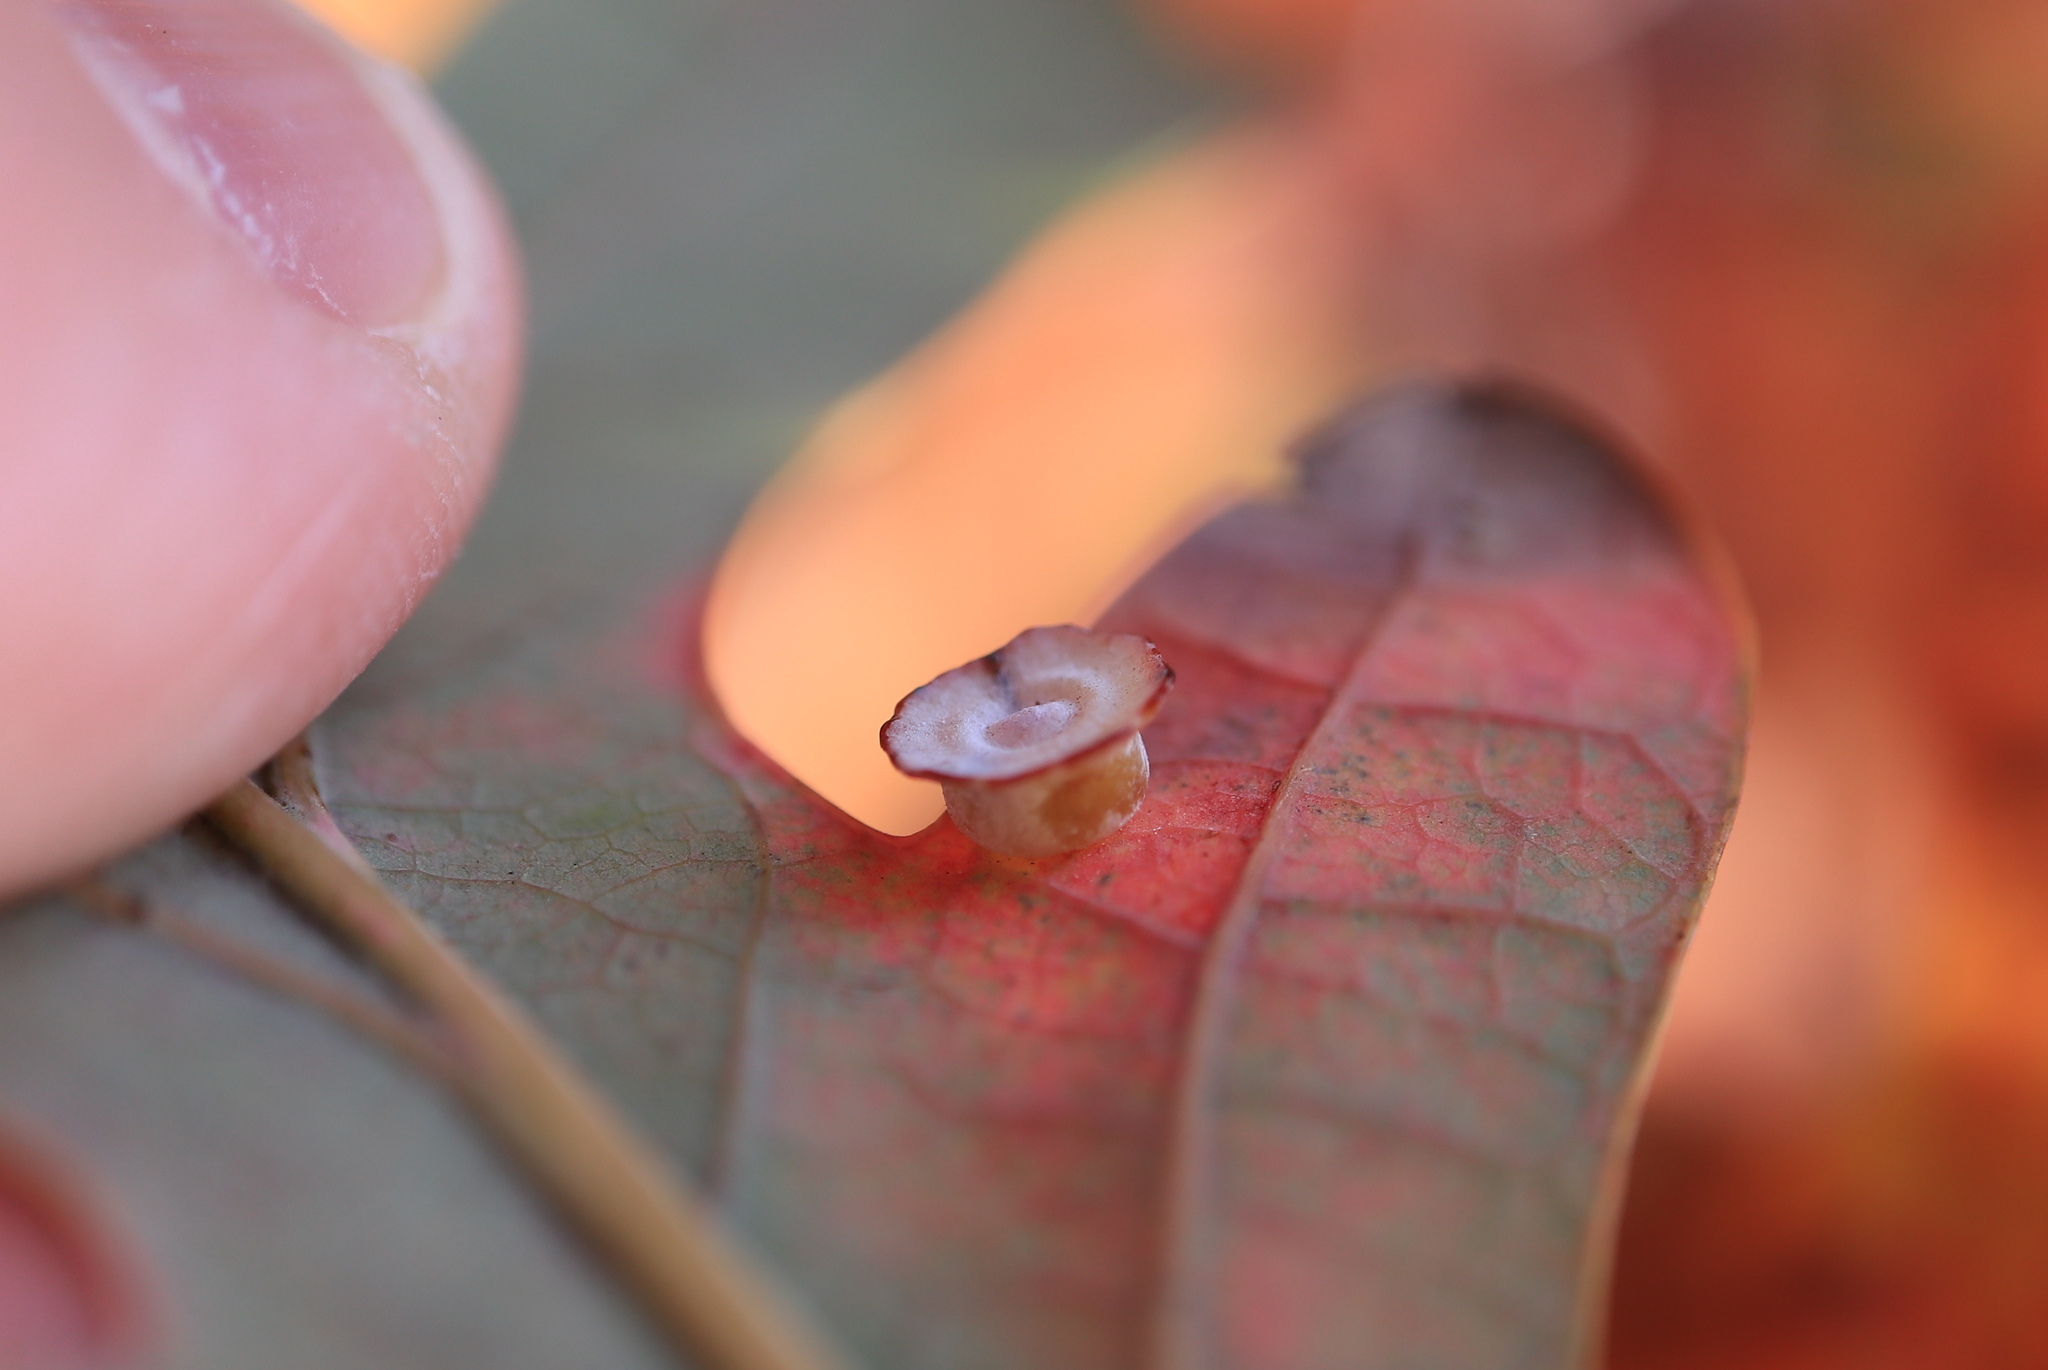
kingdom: Animalia
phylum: Arthropoda
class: Insecta
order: Hymenoptera
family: Cynipidae
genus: Phylloteras
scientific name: Phylloteras poculum
